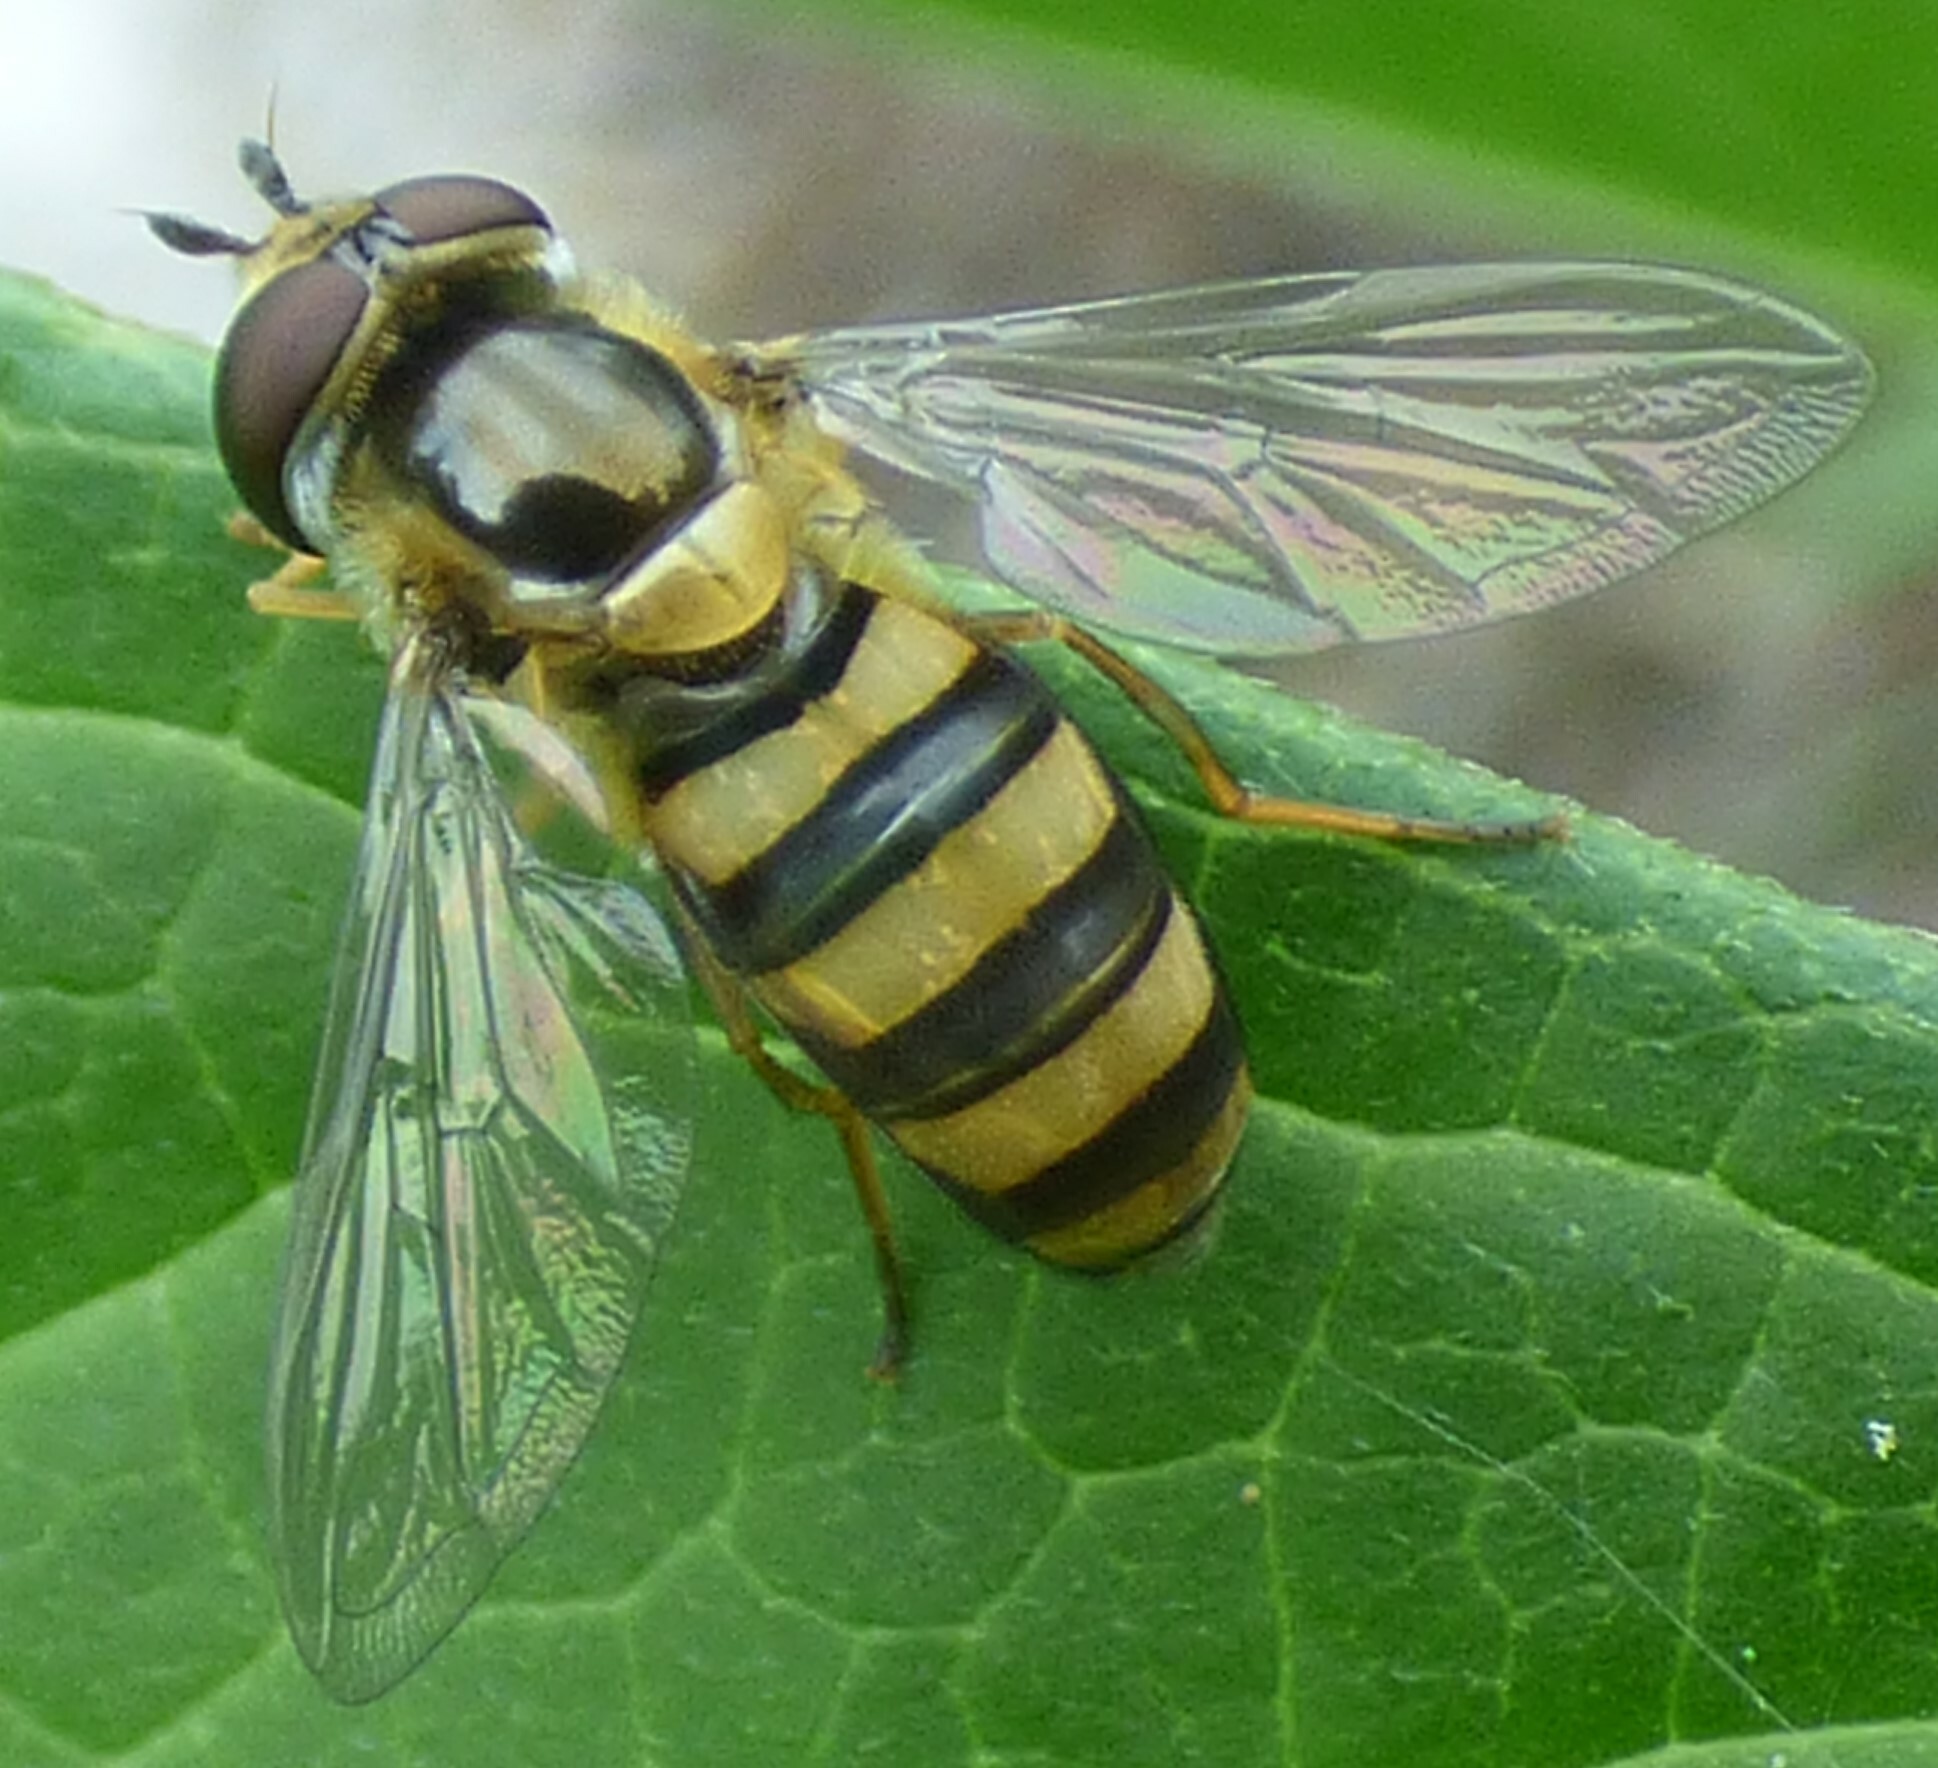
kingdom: Animalia
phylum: Arthropoda
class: Insecta
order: Diptera
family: Syrphidae
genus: Eupeodes
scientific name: Eupeodes
